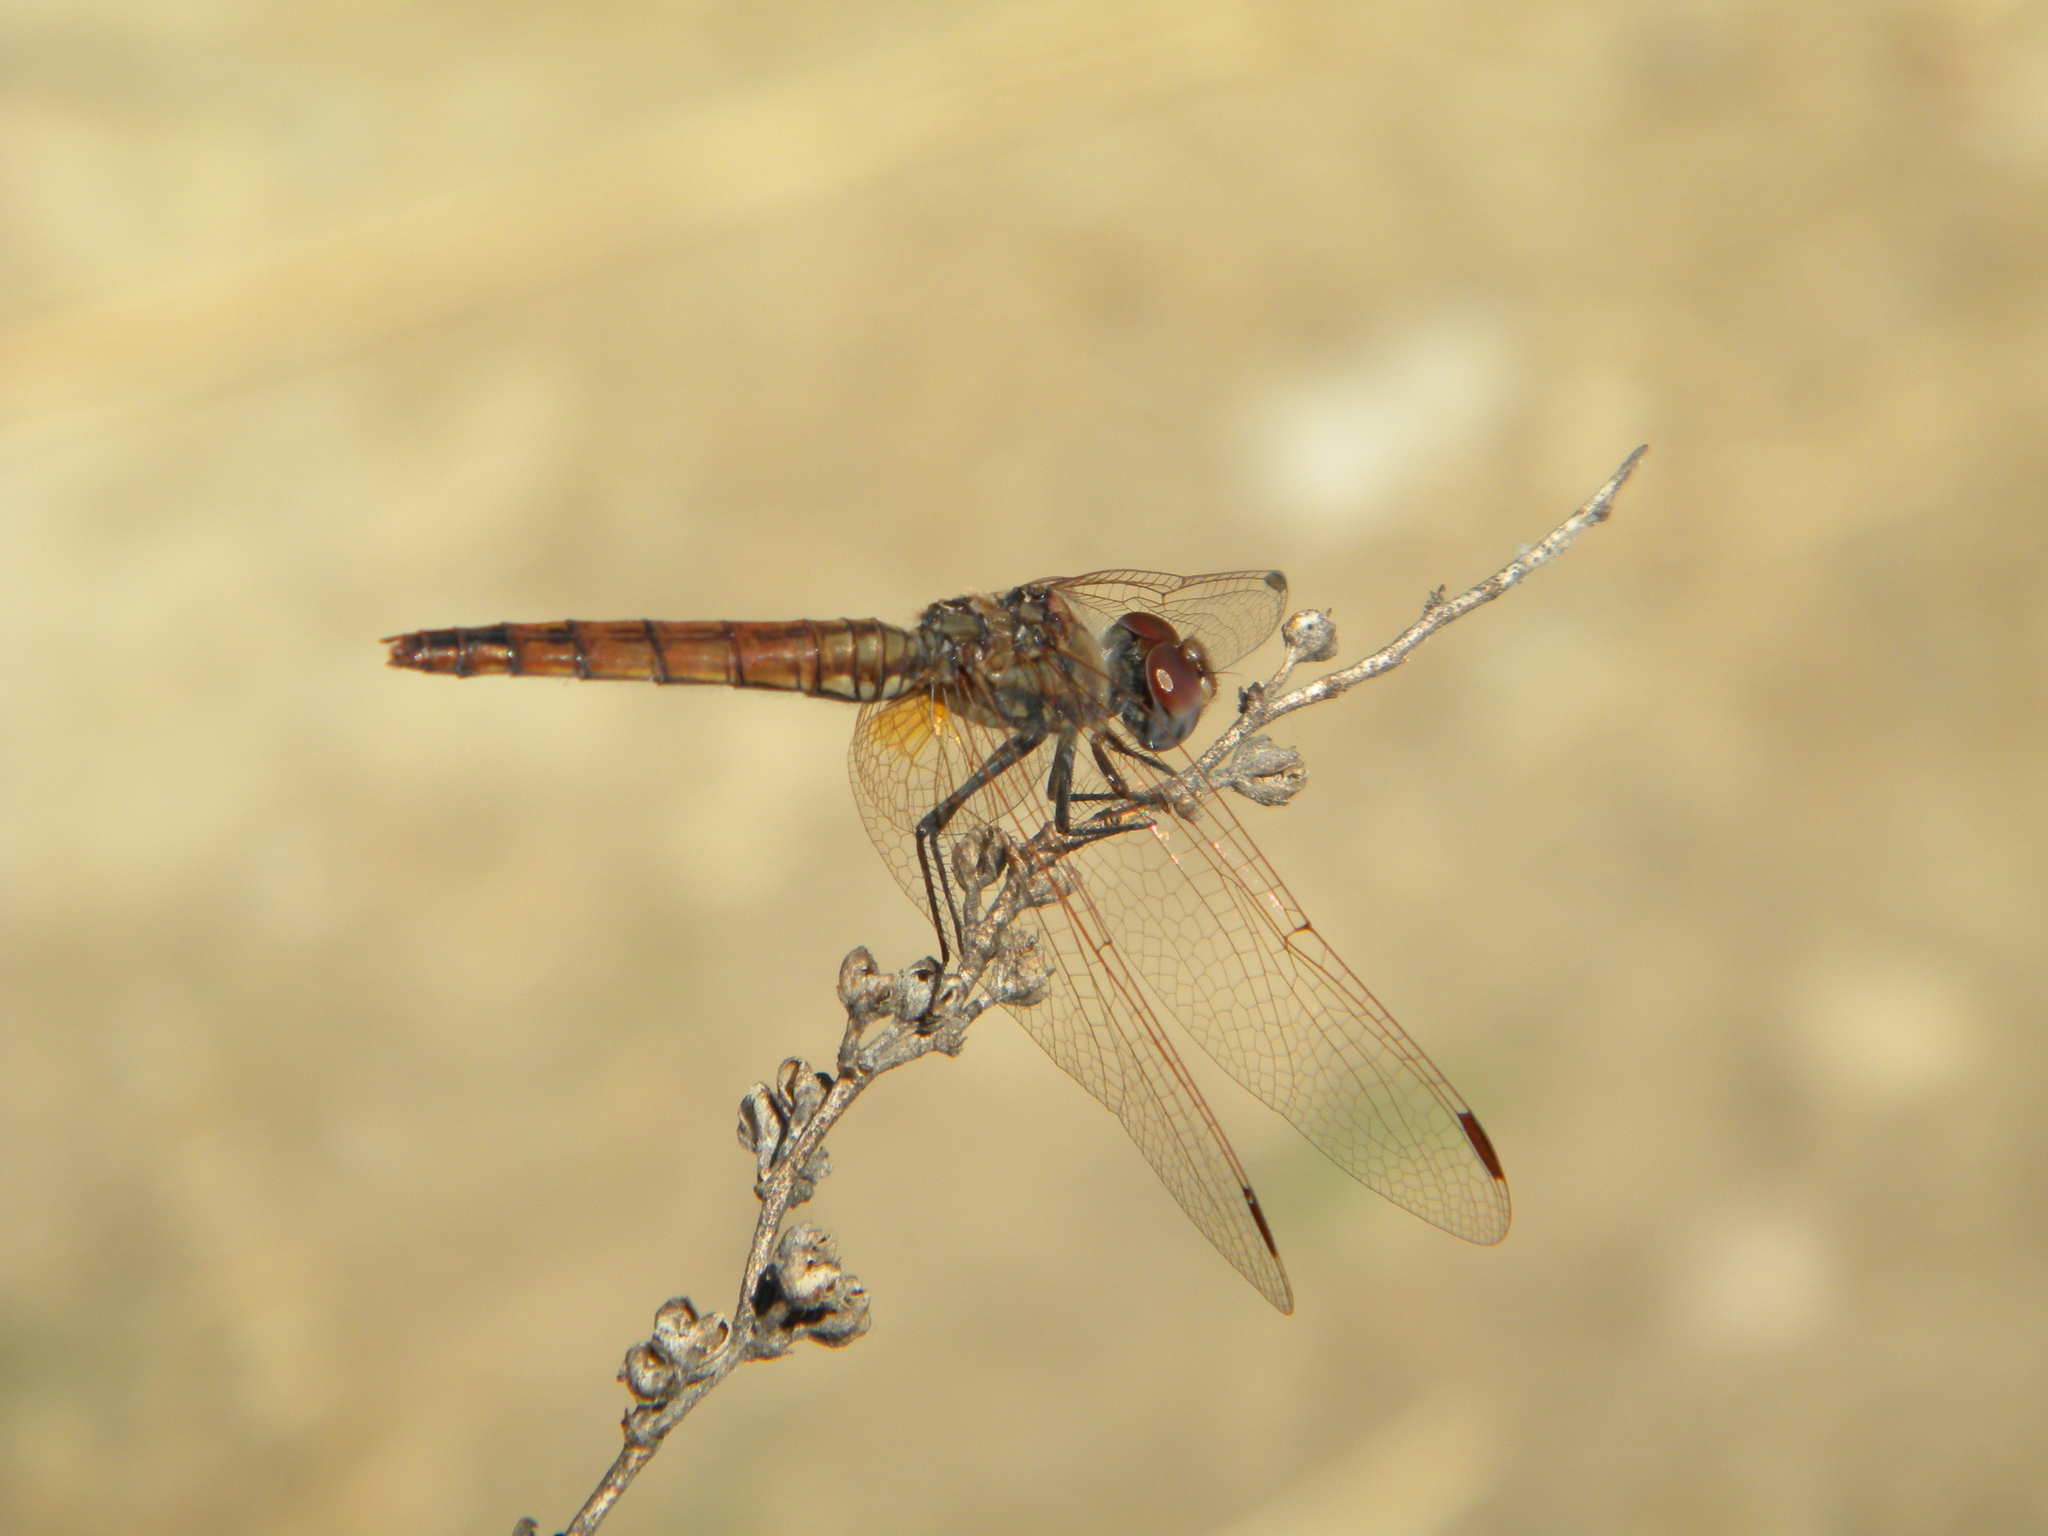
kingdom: Animalia
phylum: Arthropoda
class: Insecta
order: Odonata
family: Libellulidae
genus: Trithemis
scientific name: Trithemis annulata
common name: Violet dropwing
